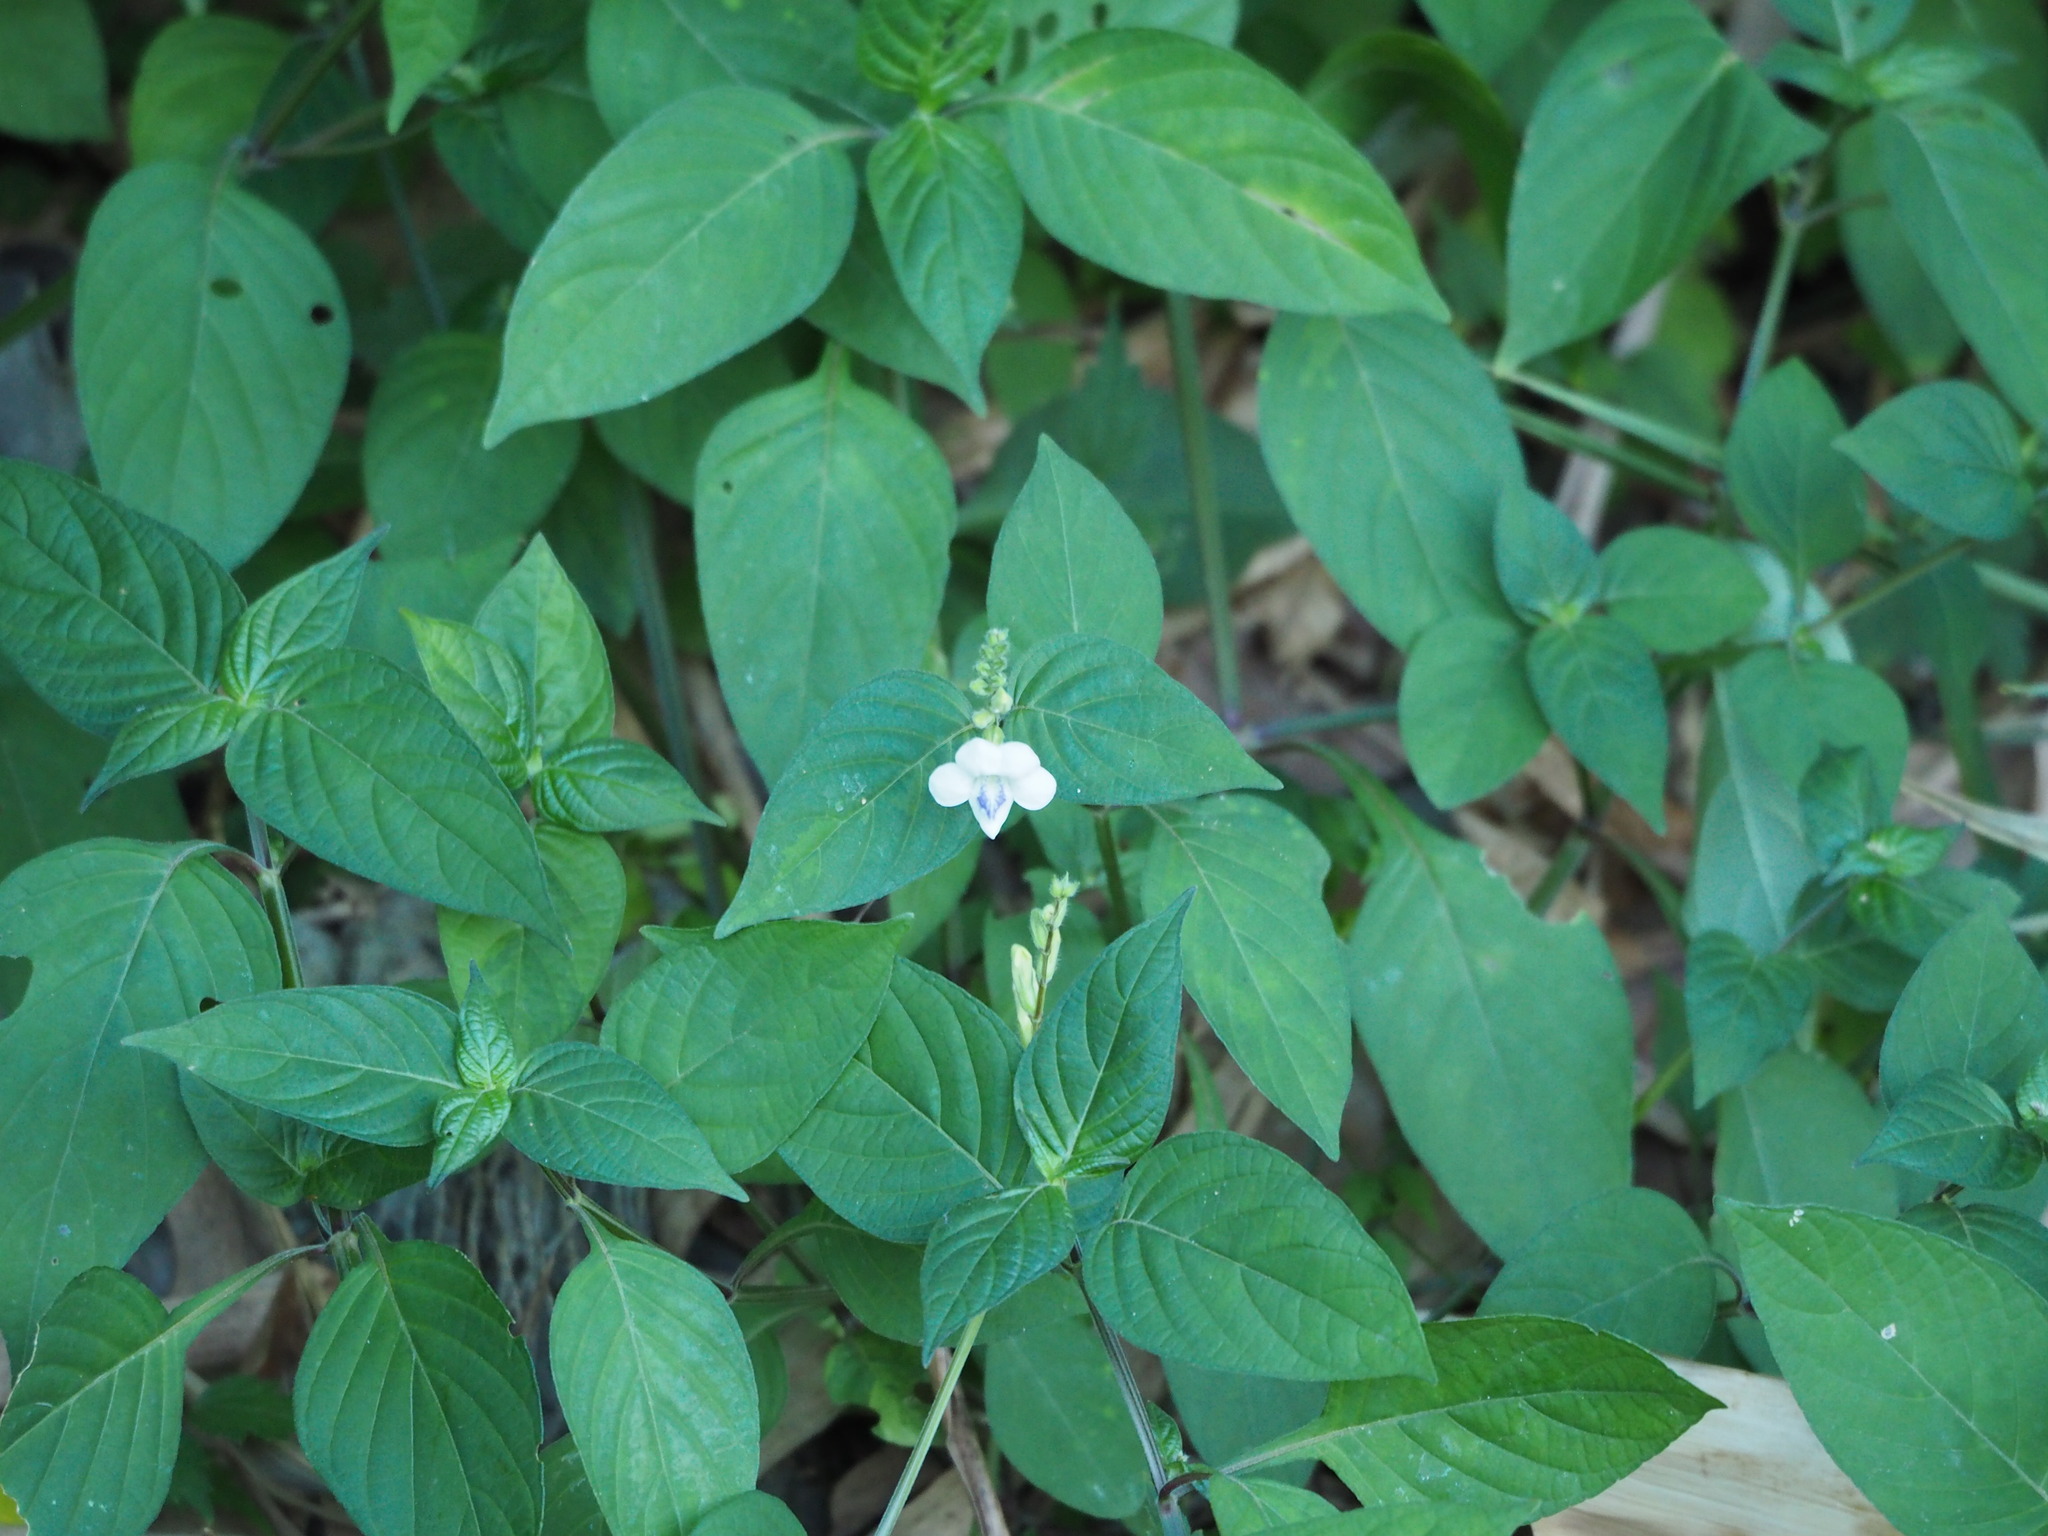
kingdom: Plantae
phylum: Tracheophyta
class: Magnoliopsida
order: Lamiales
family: Acanthaceae
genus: Asystasia
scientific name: Asystasia intrusa
